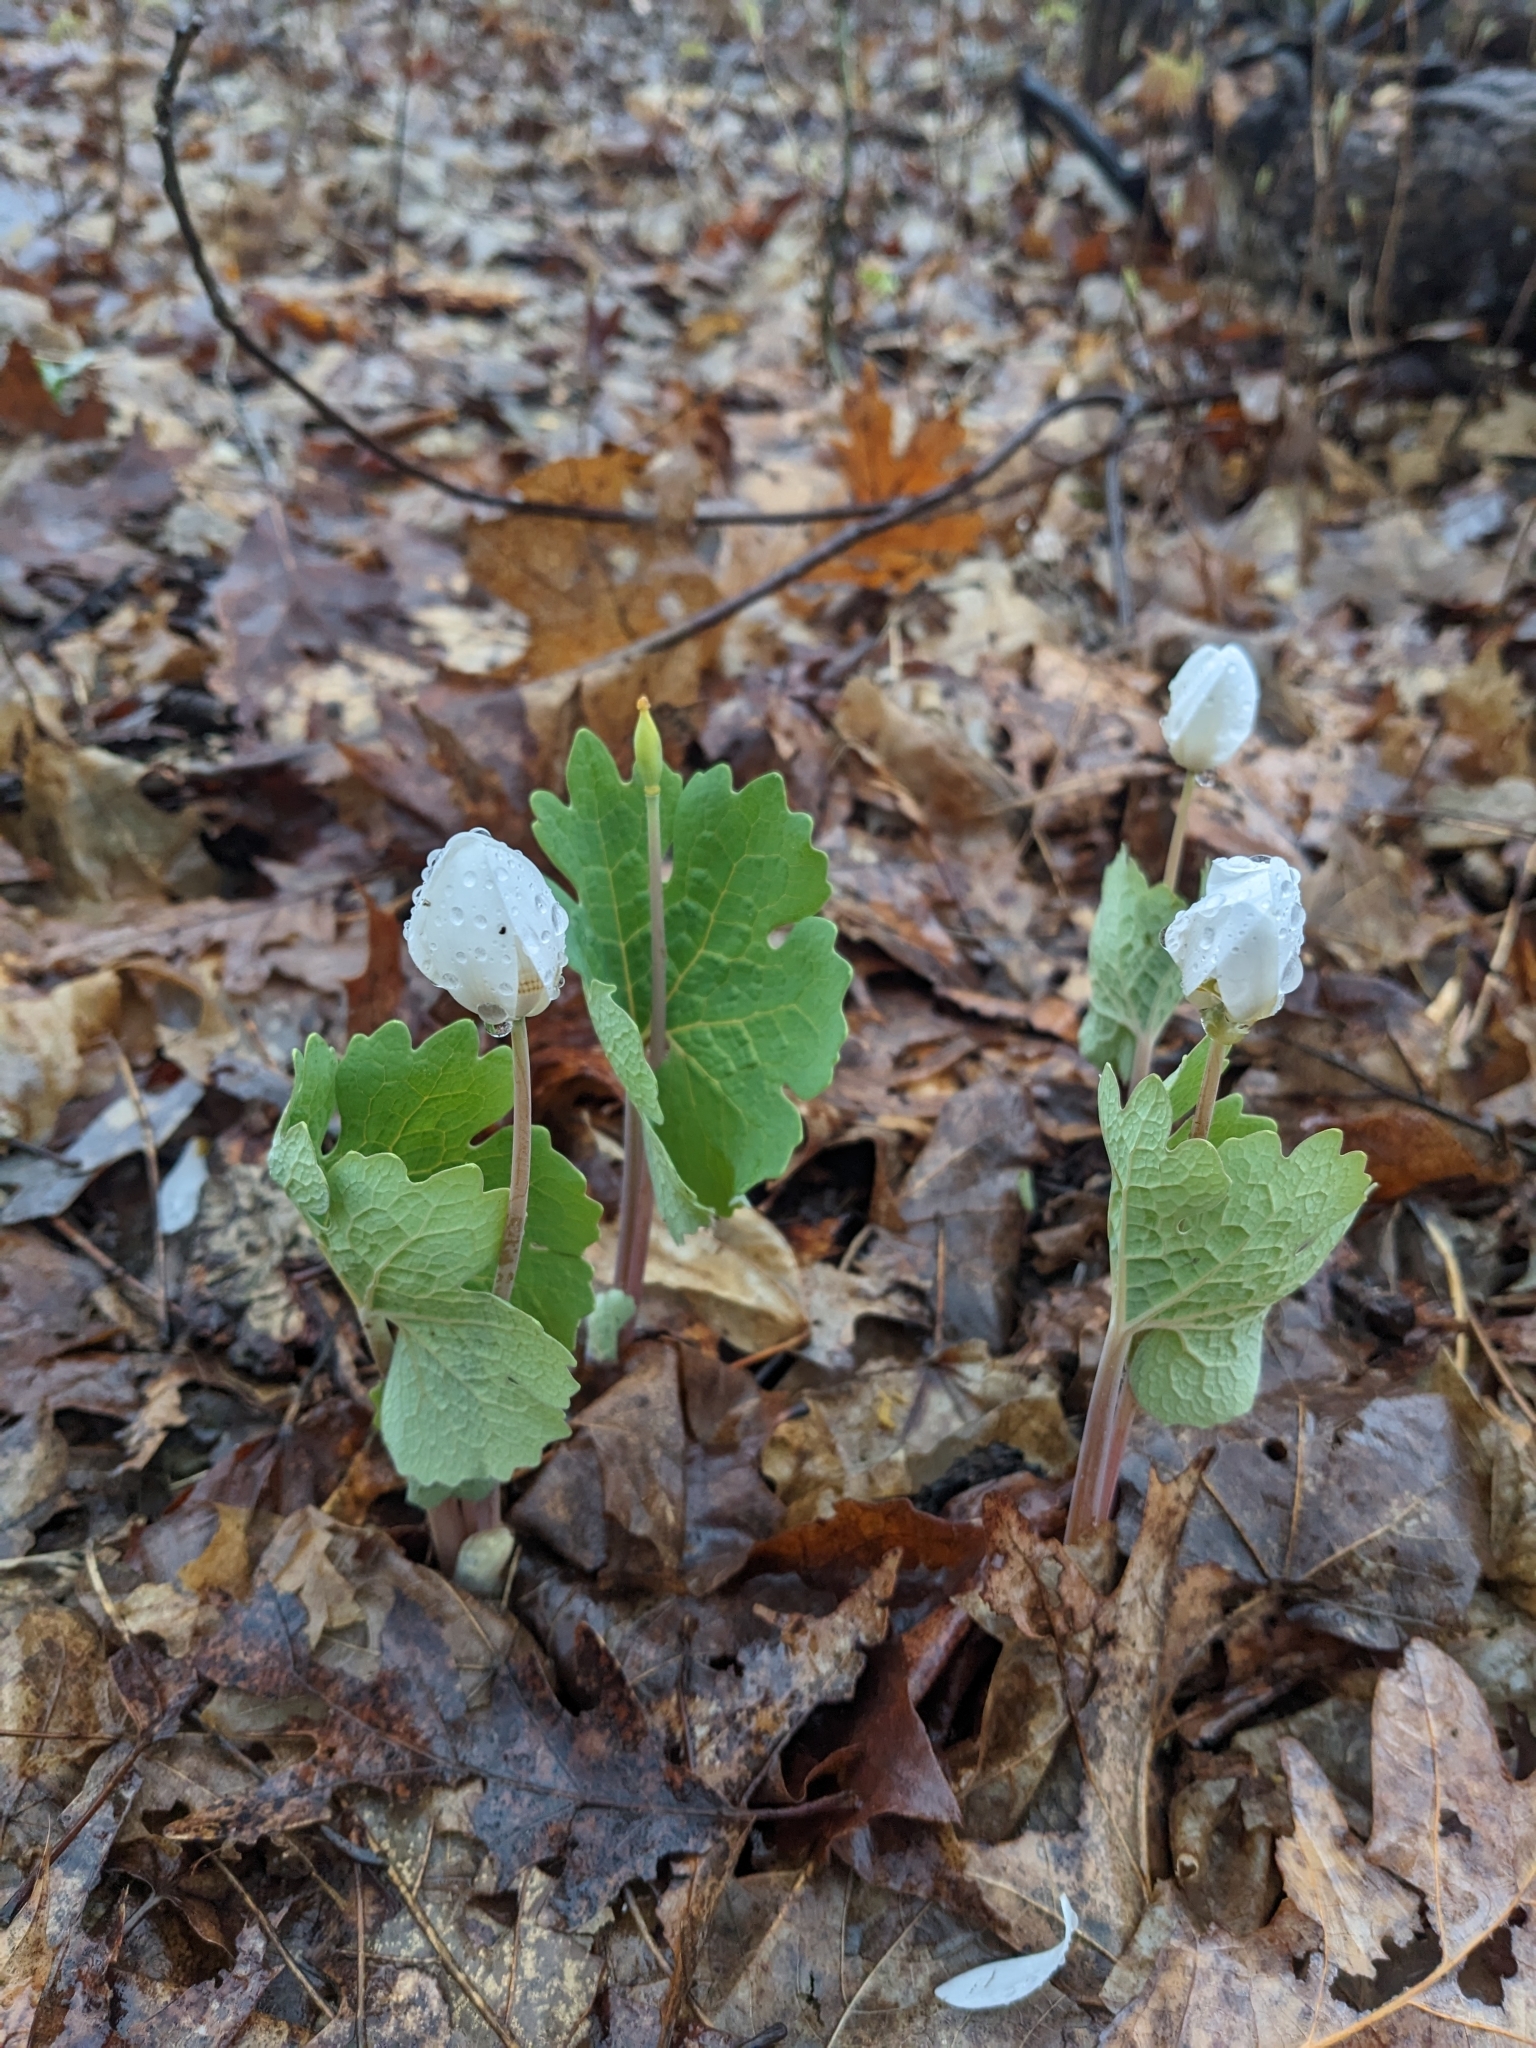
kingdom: Plantae
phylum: Tracheophyta
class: Magnoliopsida
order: Ranunculales
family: Papaveraceae
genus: Sanguinaria
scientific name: Sanguinaria canadensis
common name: Bloodroot
